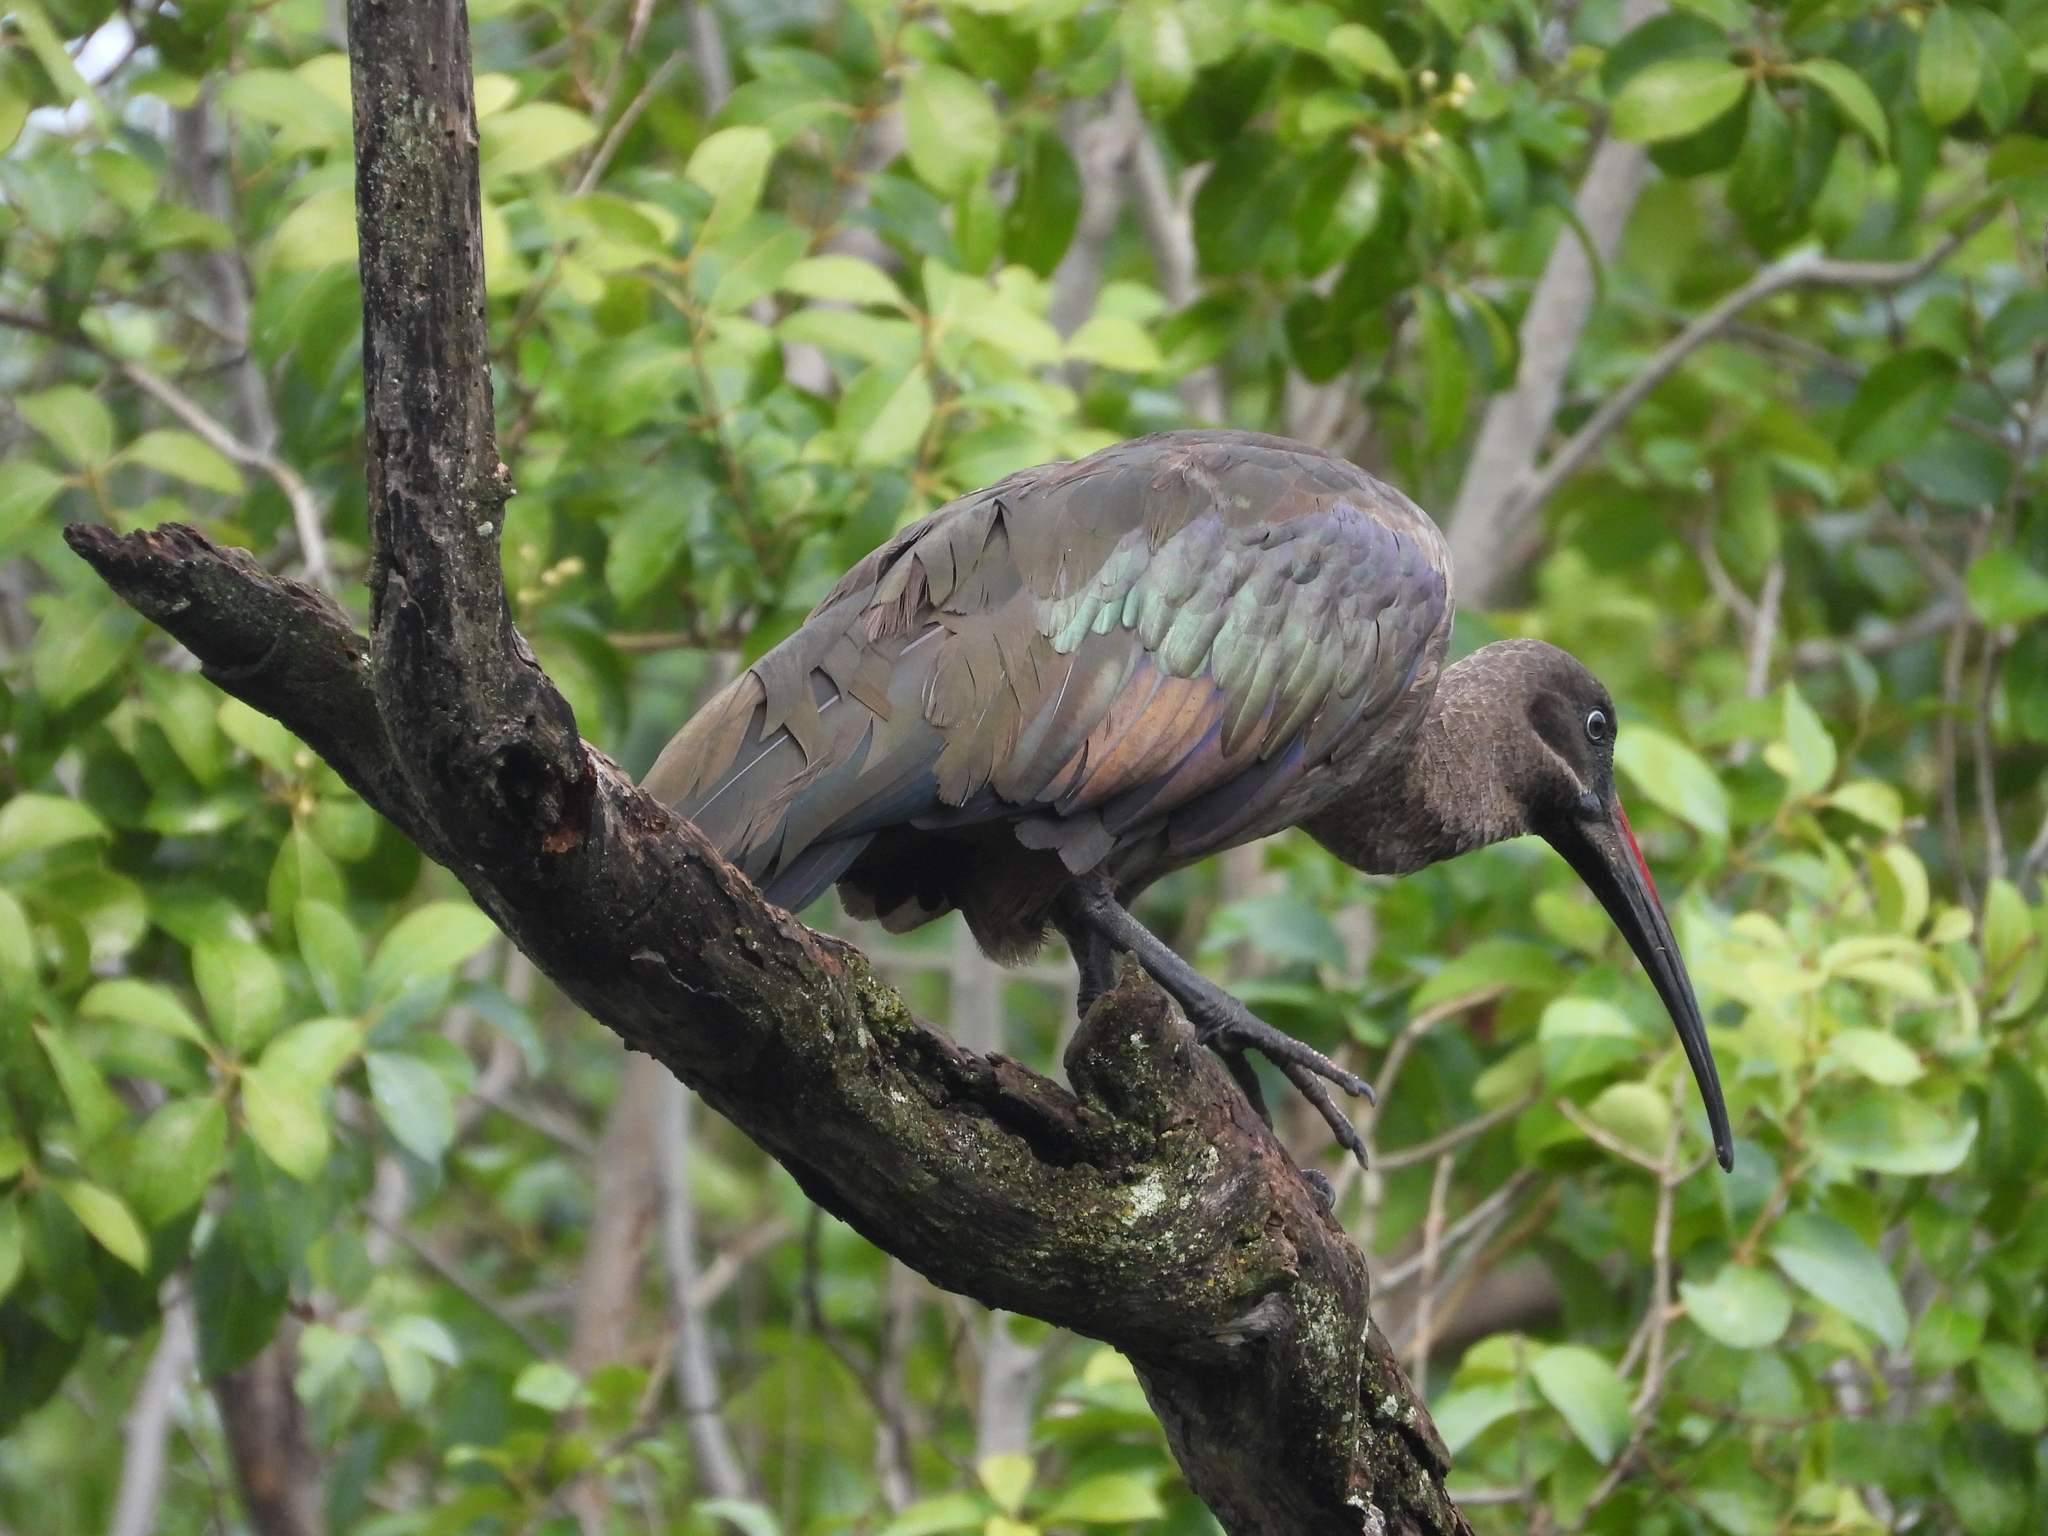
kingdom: Animalia
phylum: Chordata
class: Aves
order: Pelecaniformes
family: Threskiornithidae
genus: Bostrychia
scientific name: Bostrychia hagedash
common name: Hadada ibis
